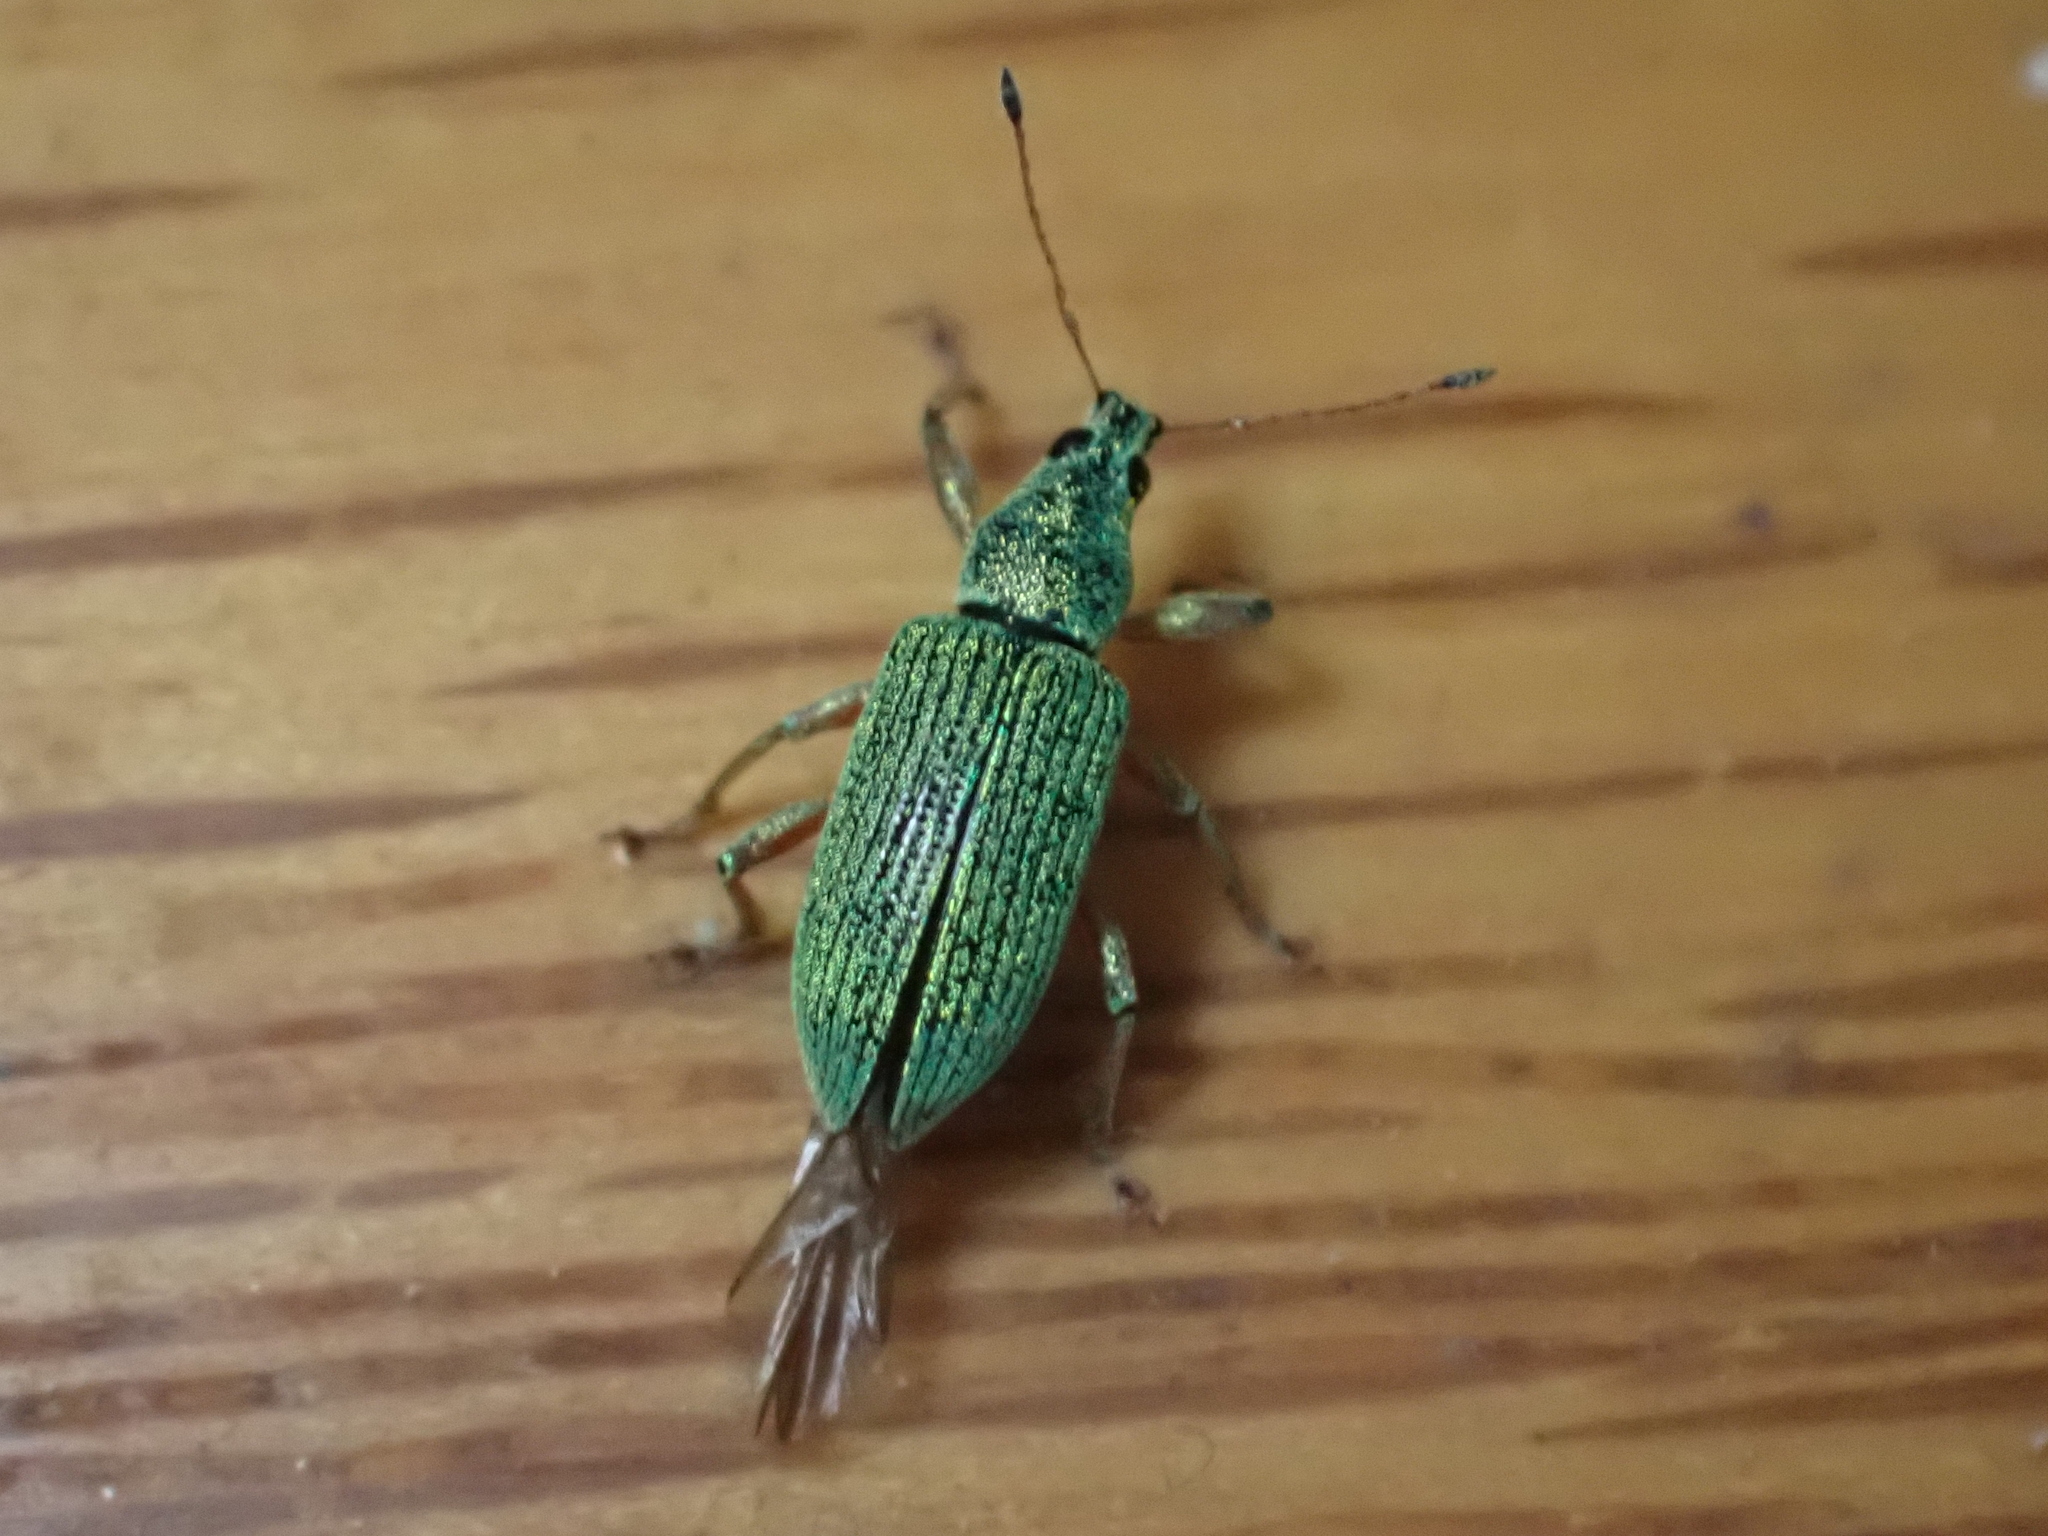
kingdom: Animalia
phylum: Arthropoda
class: Insecta
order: Coleoptera
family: Curculionidae
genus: Polydrusus
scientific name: Polydrusus formosus
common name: Weevil
